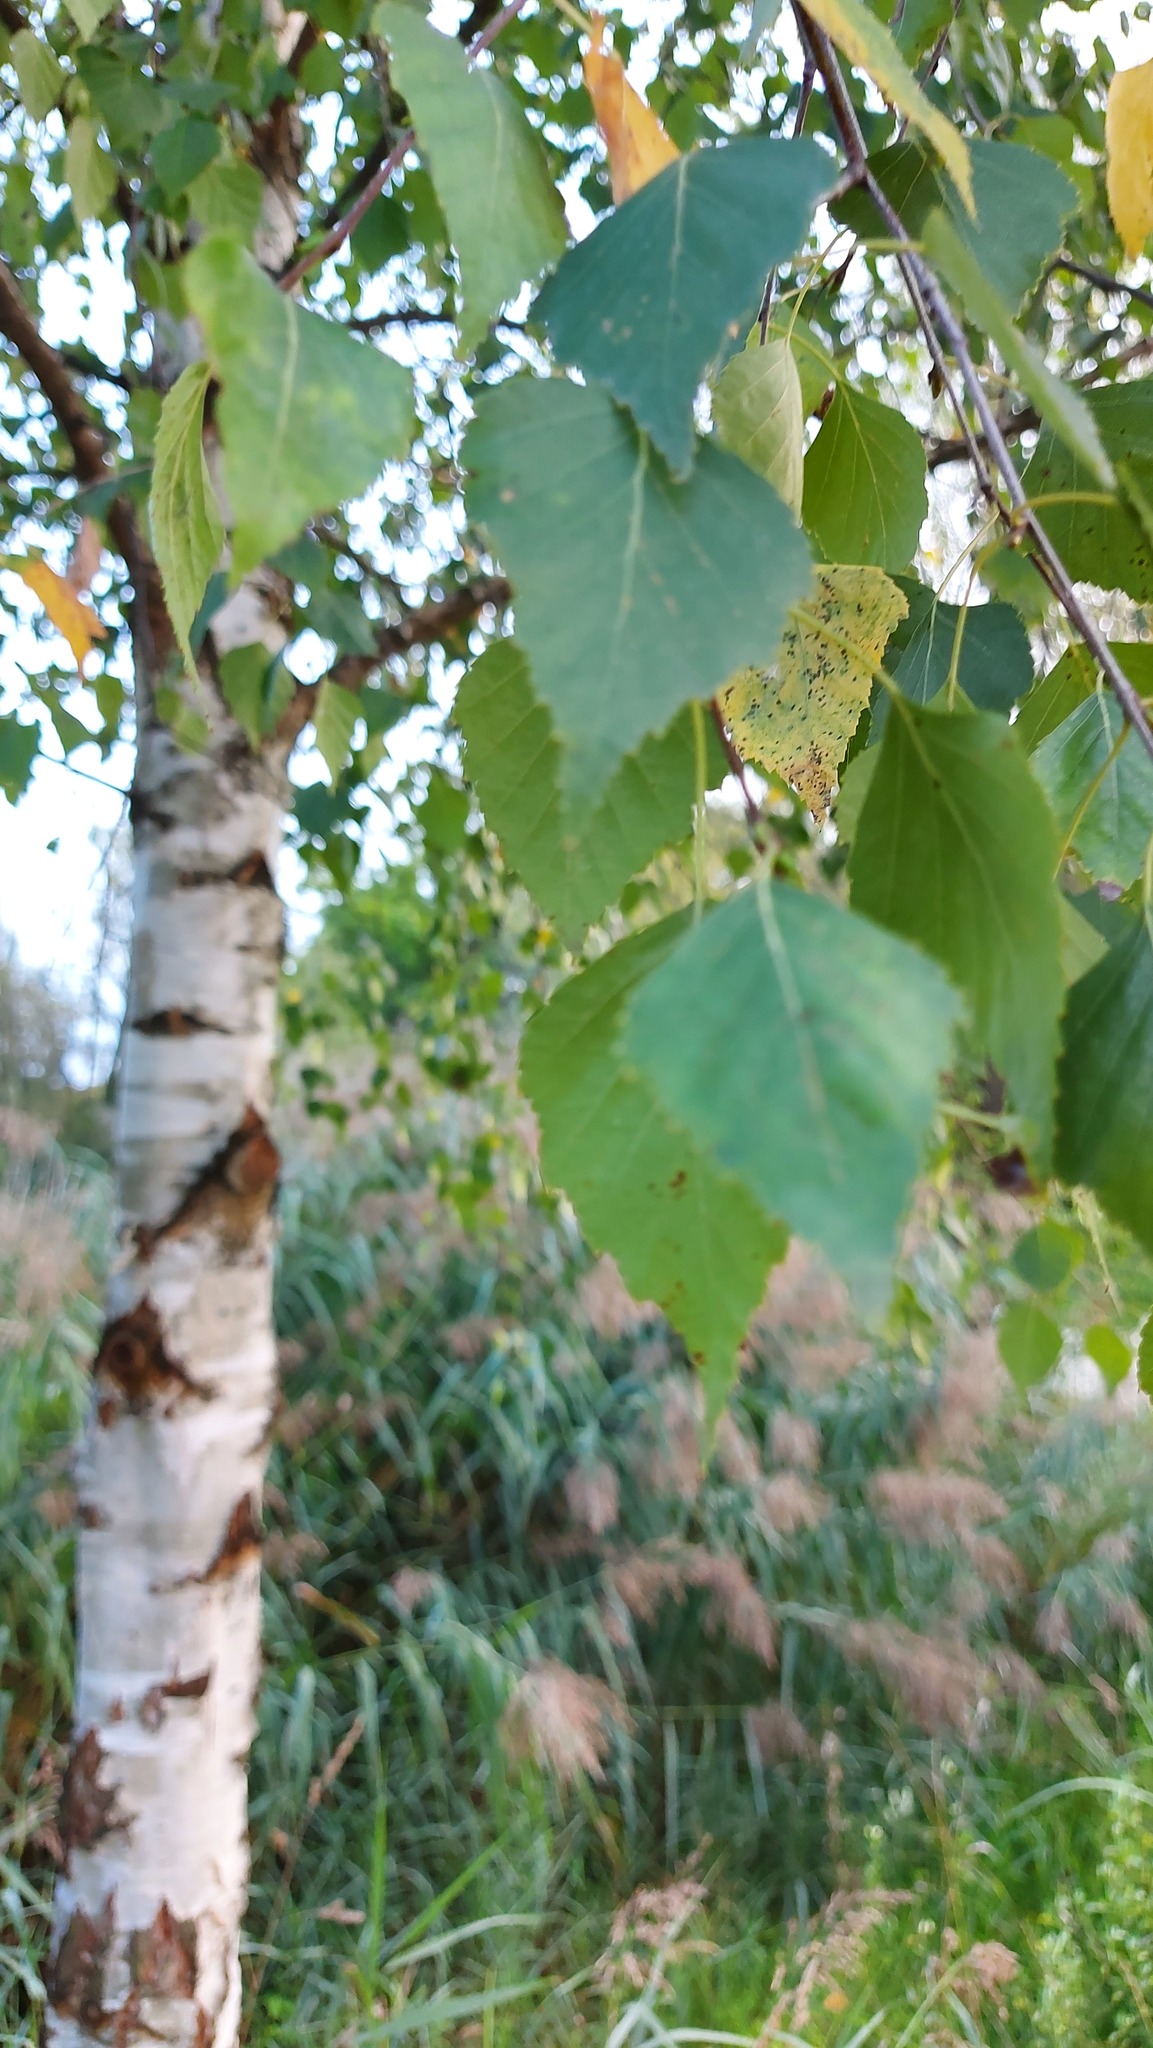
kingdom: Plantae
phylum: Tracheophyta
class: Magnoliopsida
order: Fagales
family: Betulaceae
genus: Betula
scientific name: Betula pendula
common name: Silver birch
